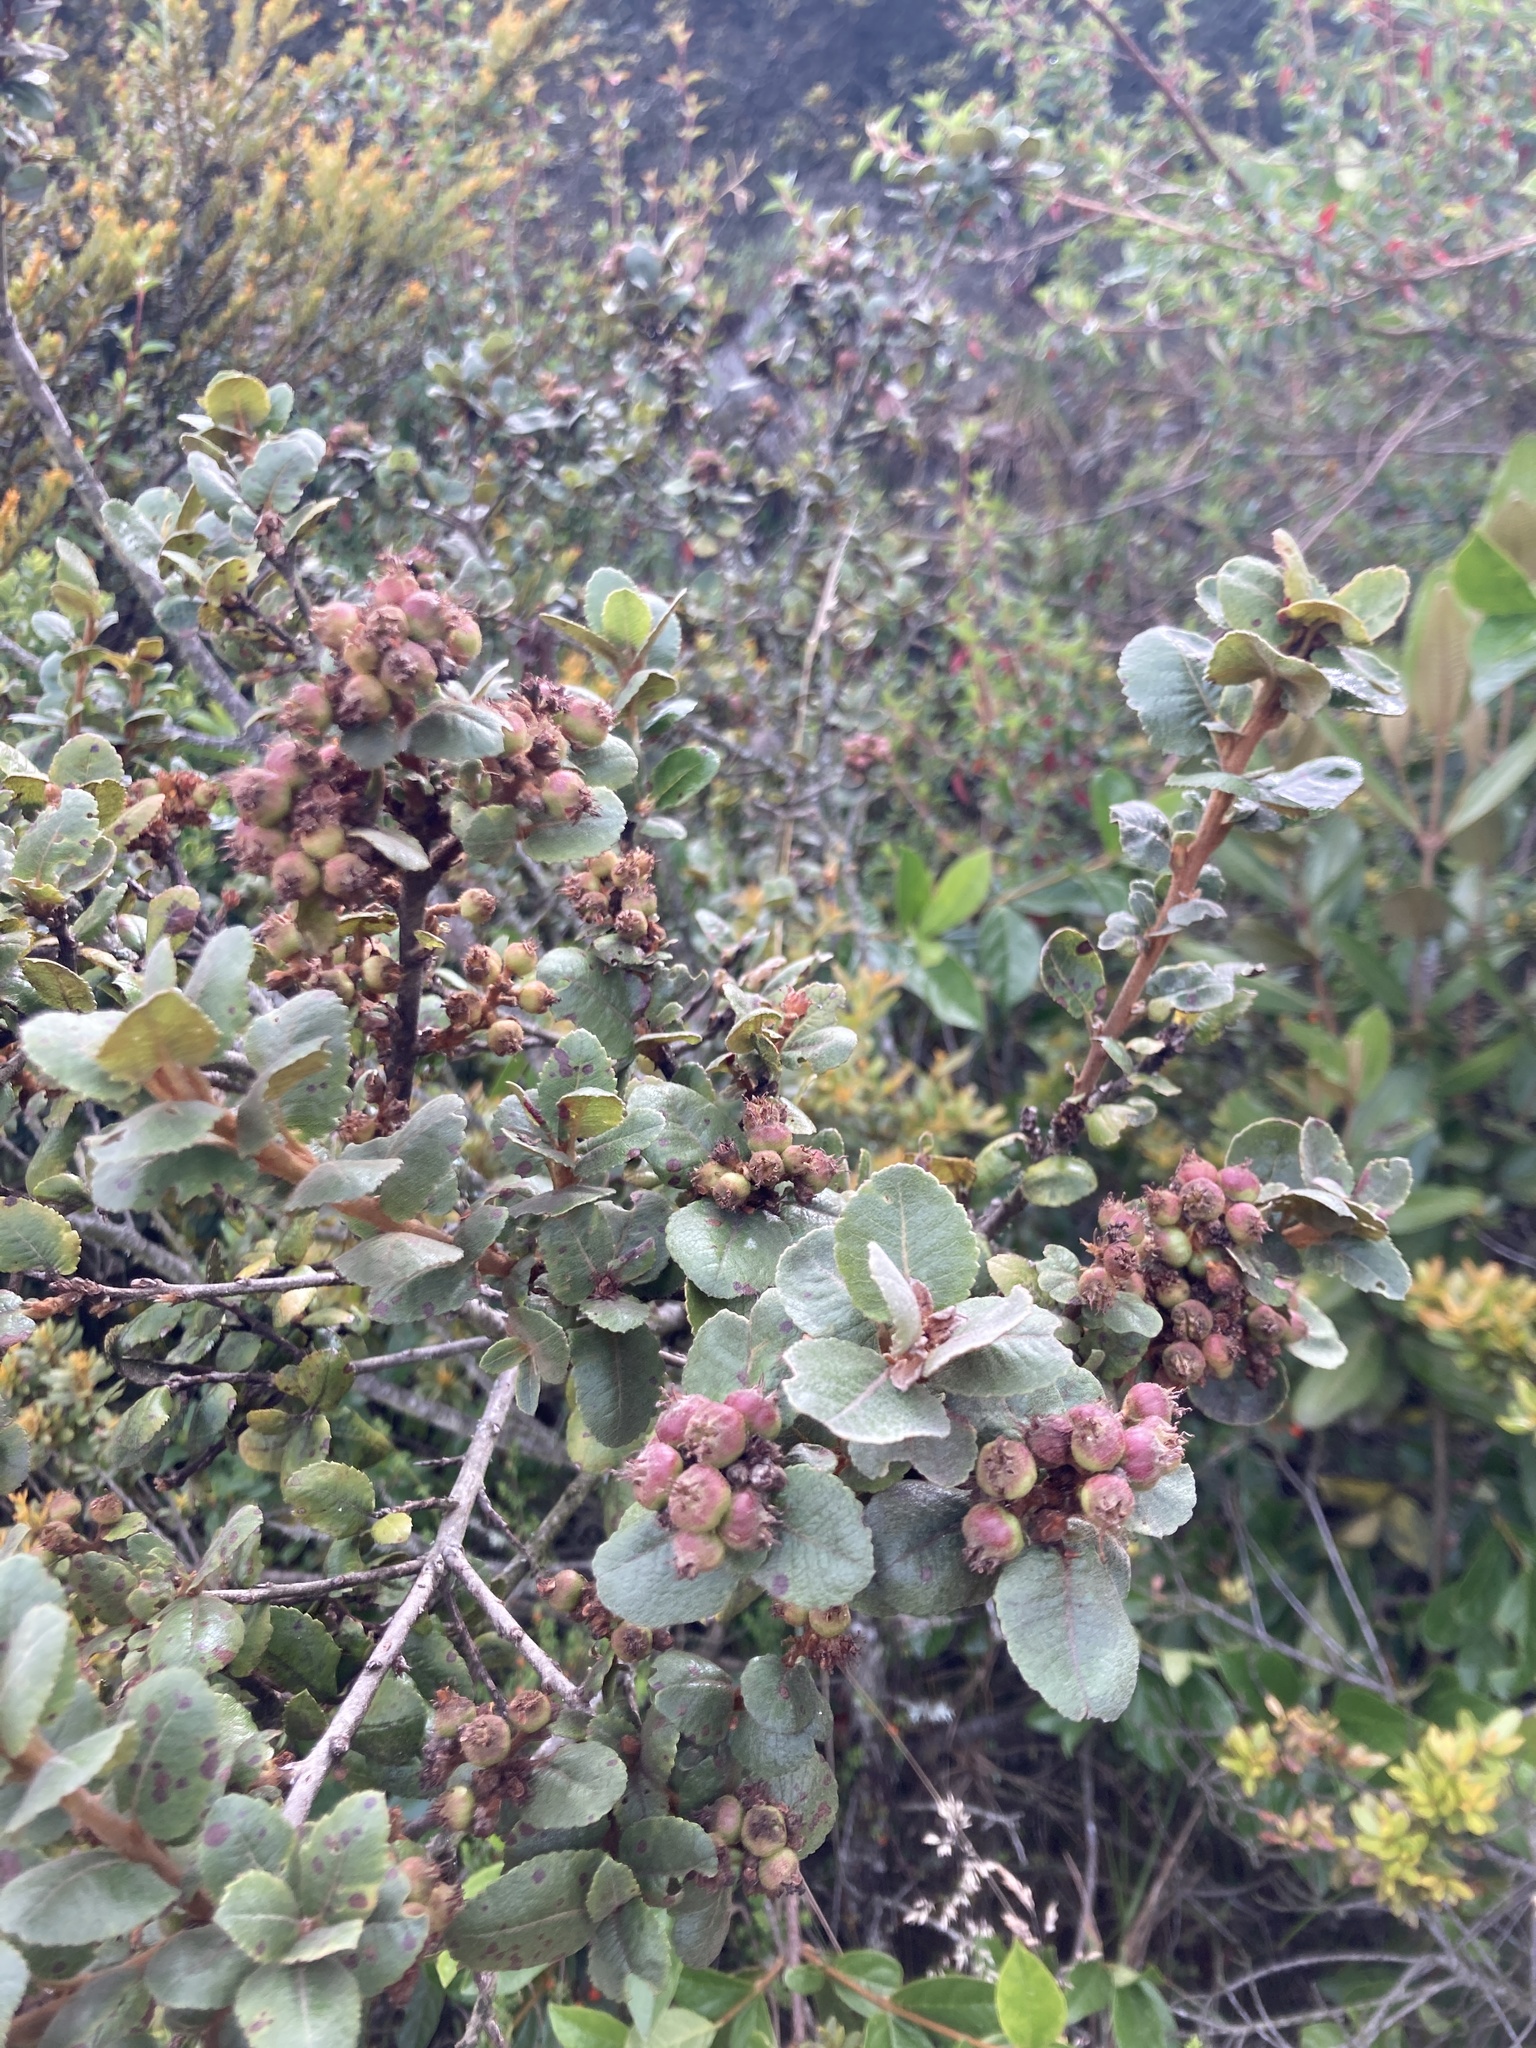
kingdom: Plantae
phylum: Tracheophyta
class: Magnoliopsida
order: Rosales
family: Rosaceae
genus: Hesperomeles
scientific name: Hesperomeles goudotiana
